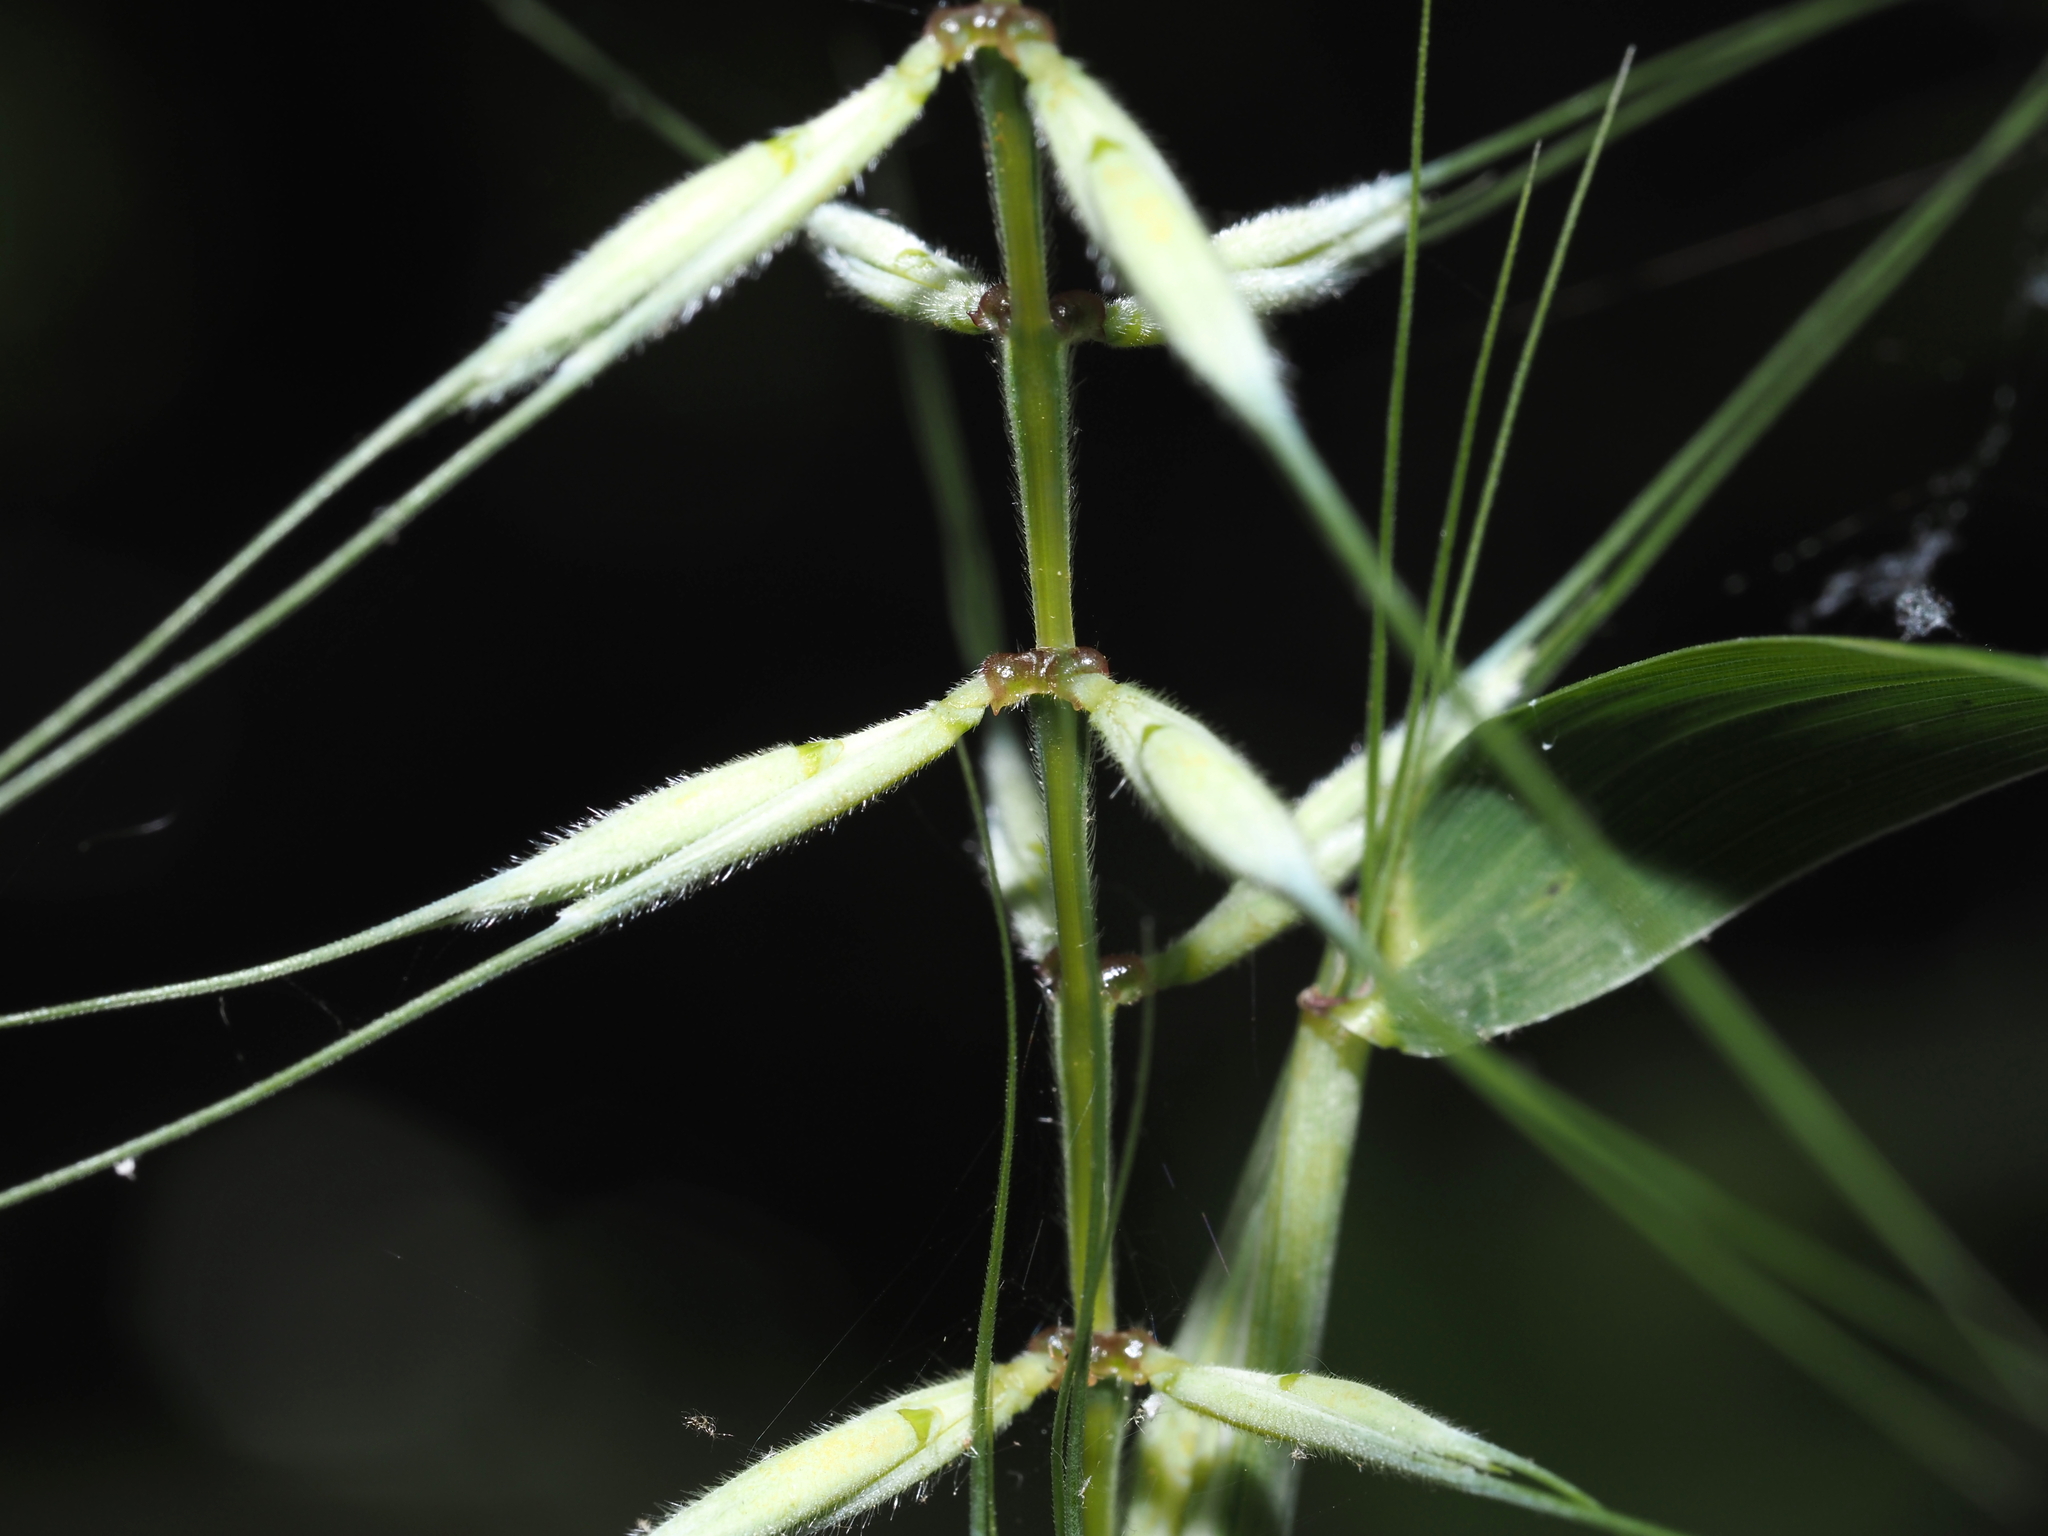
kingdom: Plantae
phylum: Tracheophyta
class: Liliopsida
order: Poales
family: Poaceae
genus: Elymus
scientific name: Elymus hystrix
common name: Bottlebrush grass
